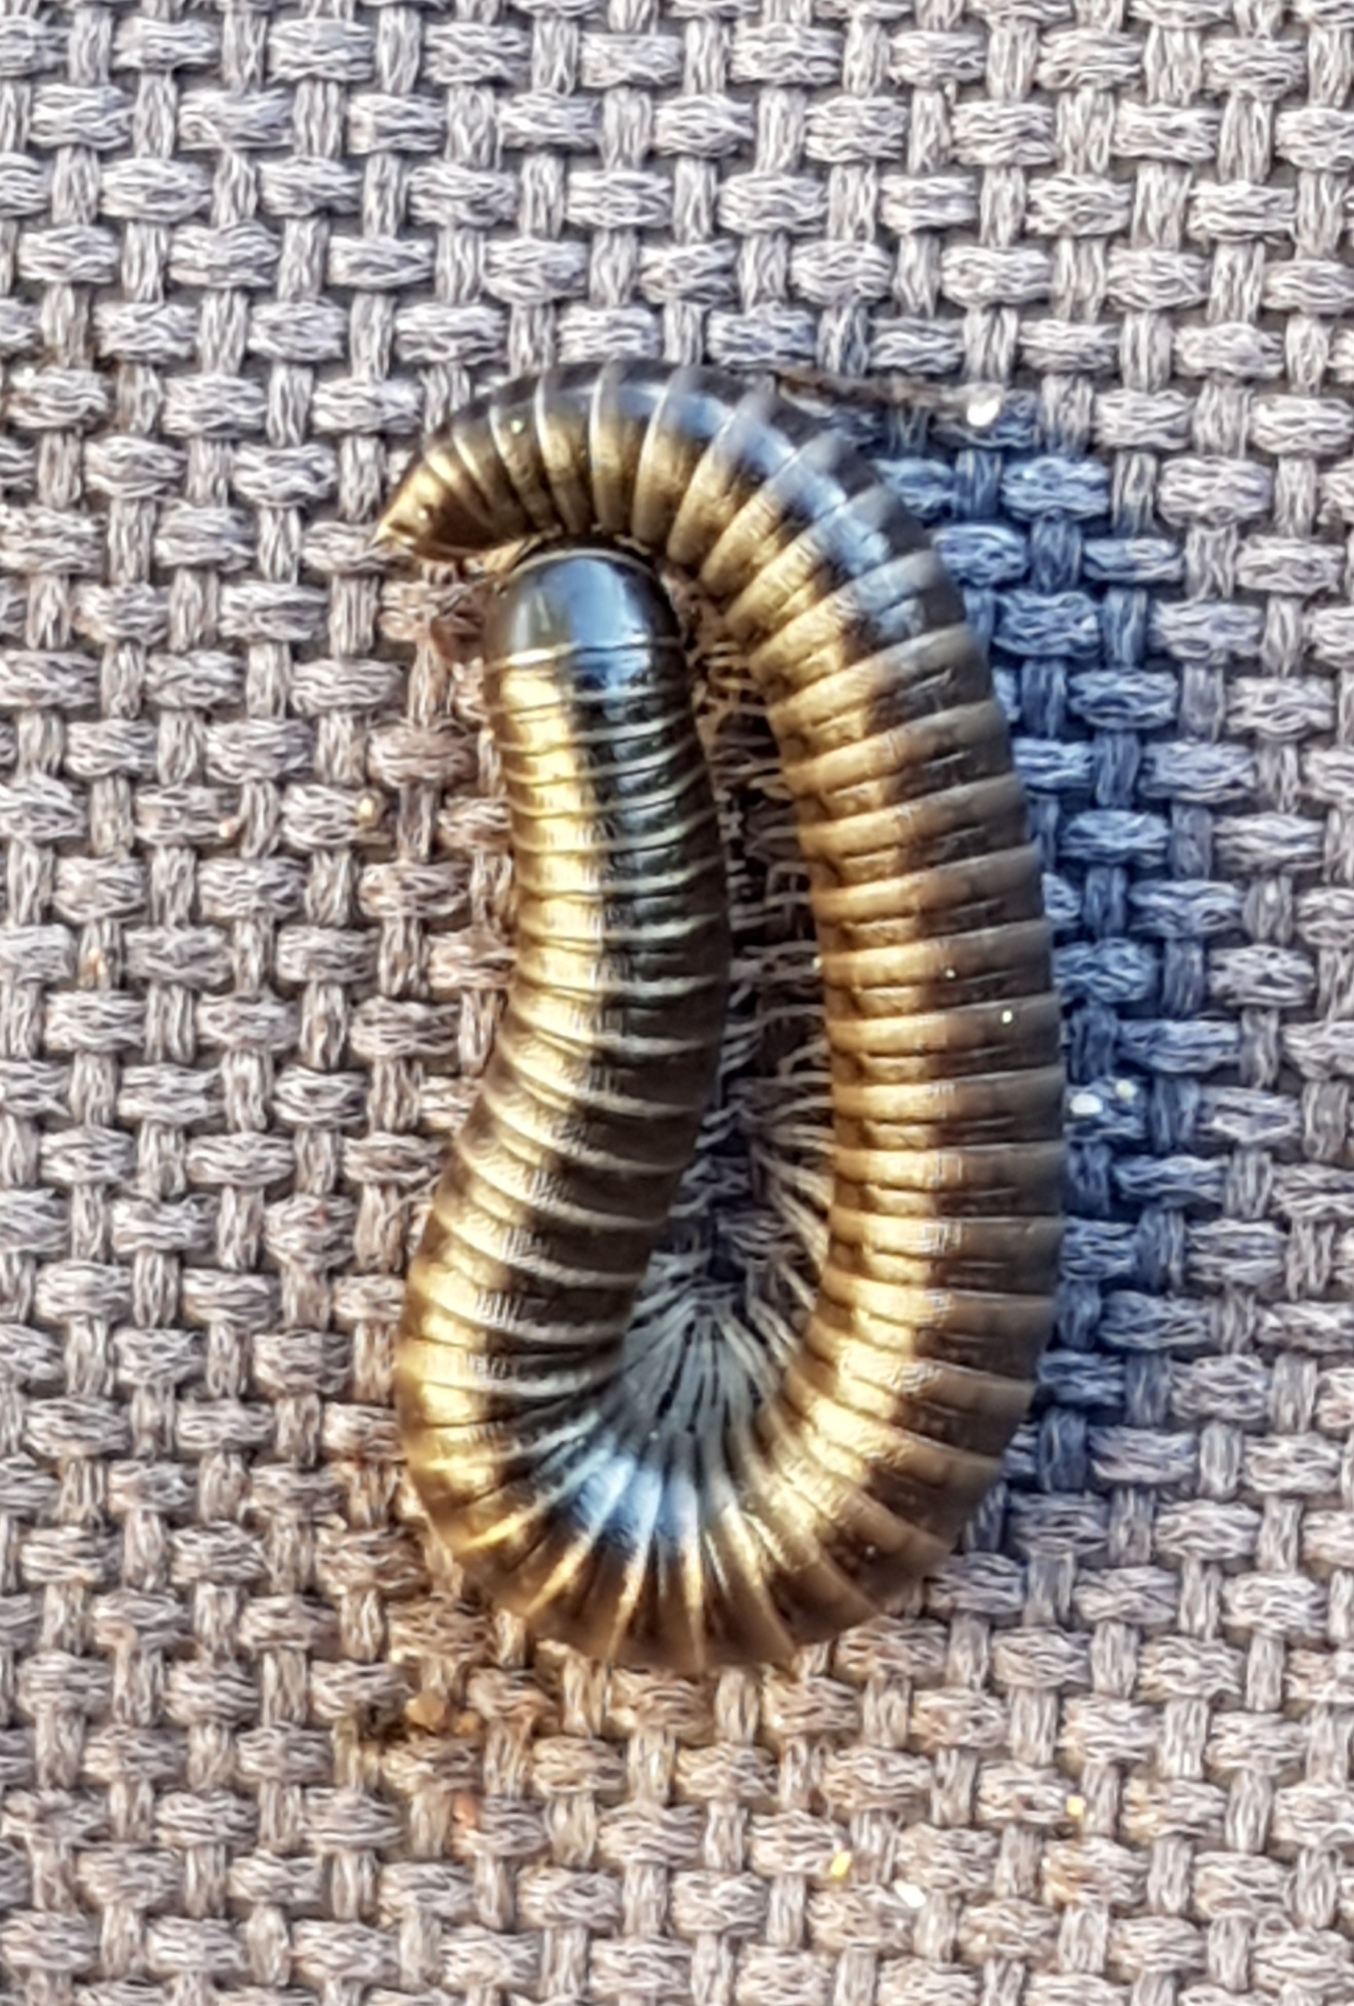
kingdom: Animalia
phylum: Arthropoda
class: Diplopoda
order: Julida
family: Julidae
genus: Ommatoiulus
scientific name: Ommatoiulus moreleti
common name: Portuguese millipede
